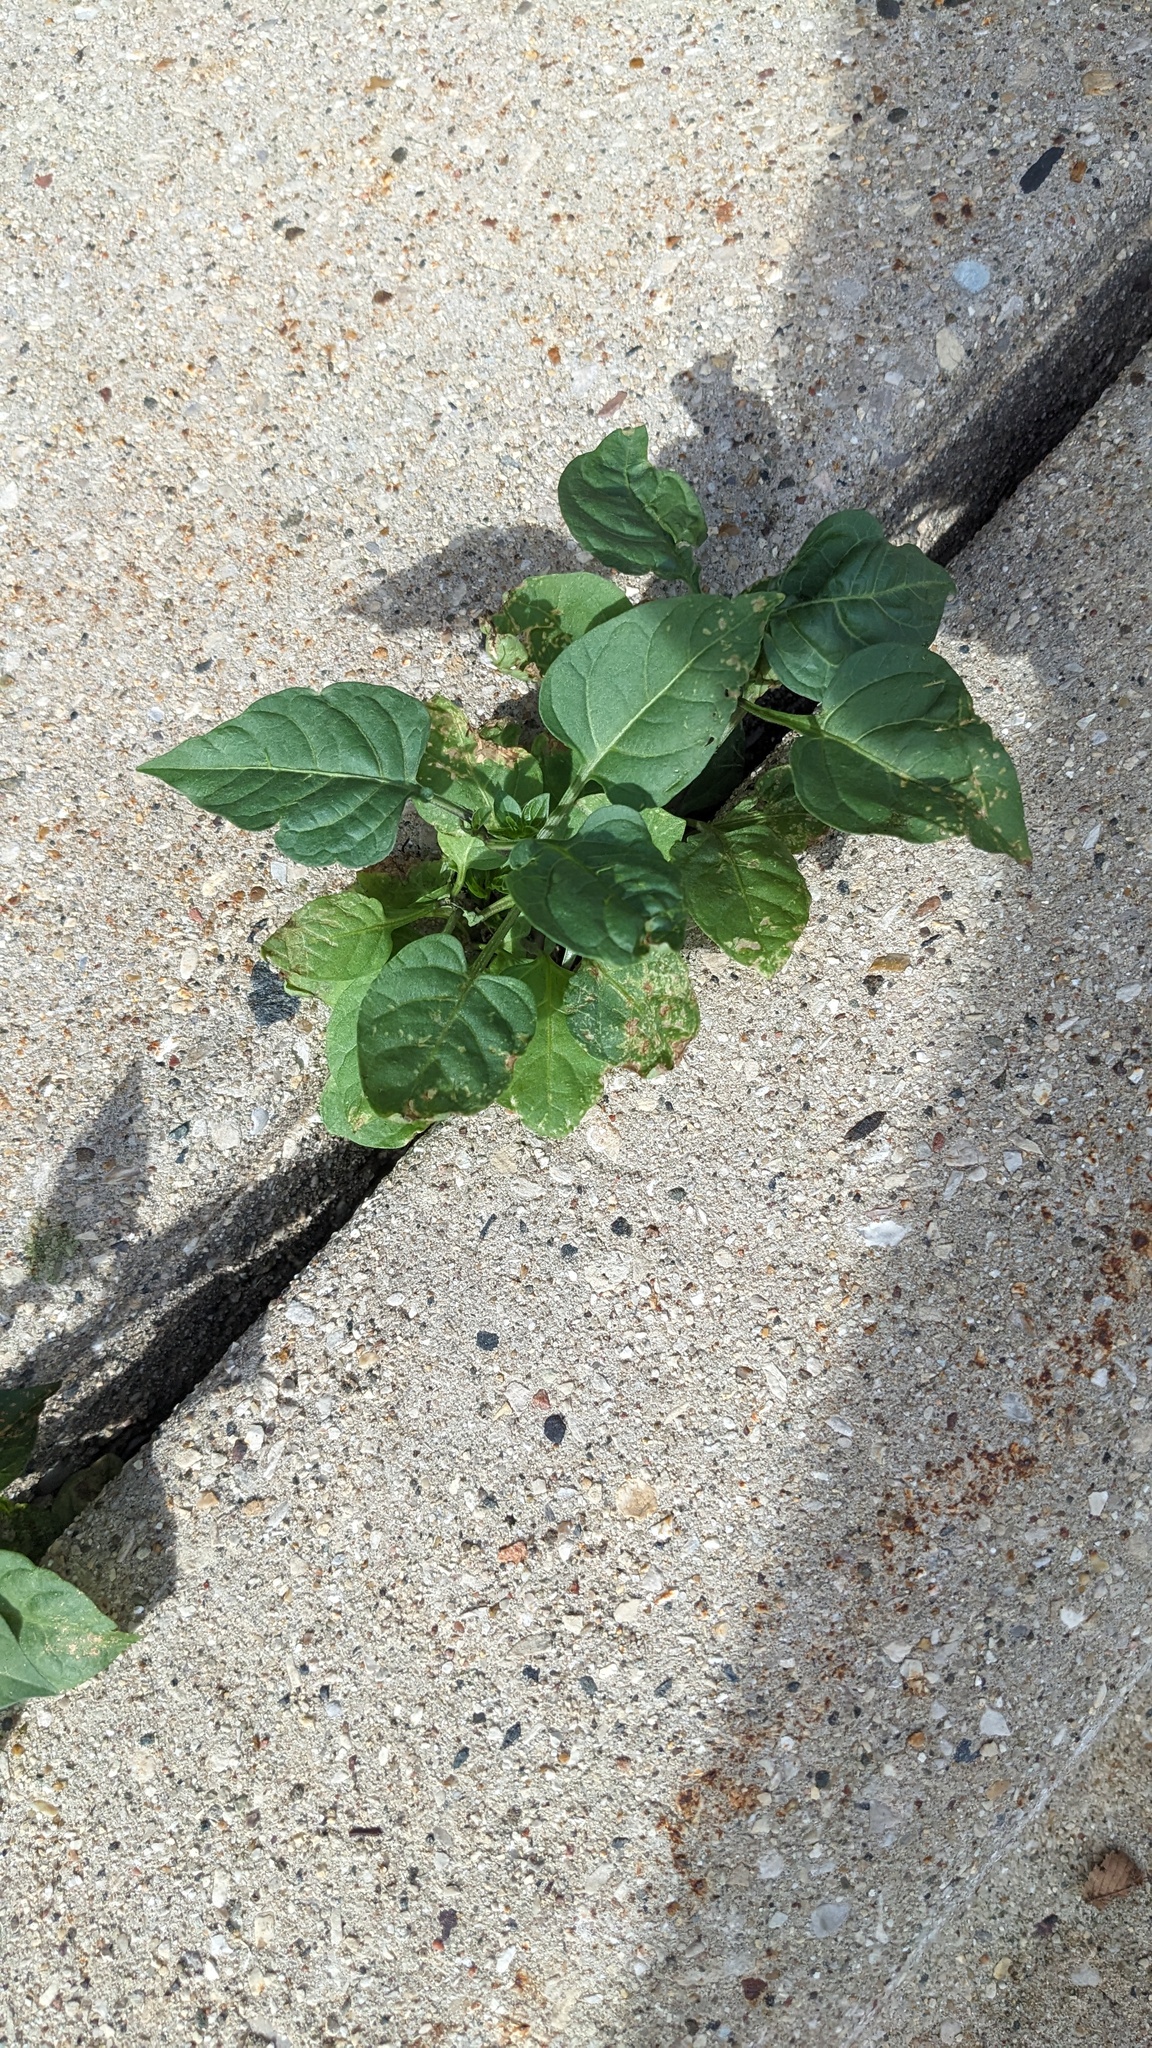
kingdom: Plantae
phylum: Tracheophyta
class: Magnoliopsida
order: Solanales
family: Solanaceae
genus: Solanum
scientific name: Solanum dulcamara
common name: Climbing nightshade
